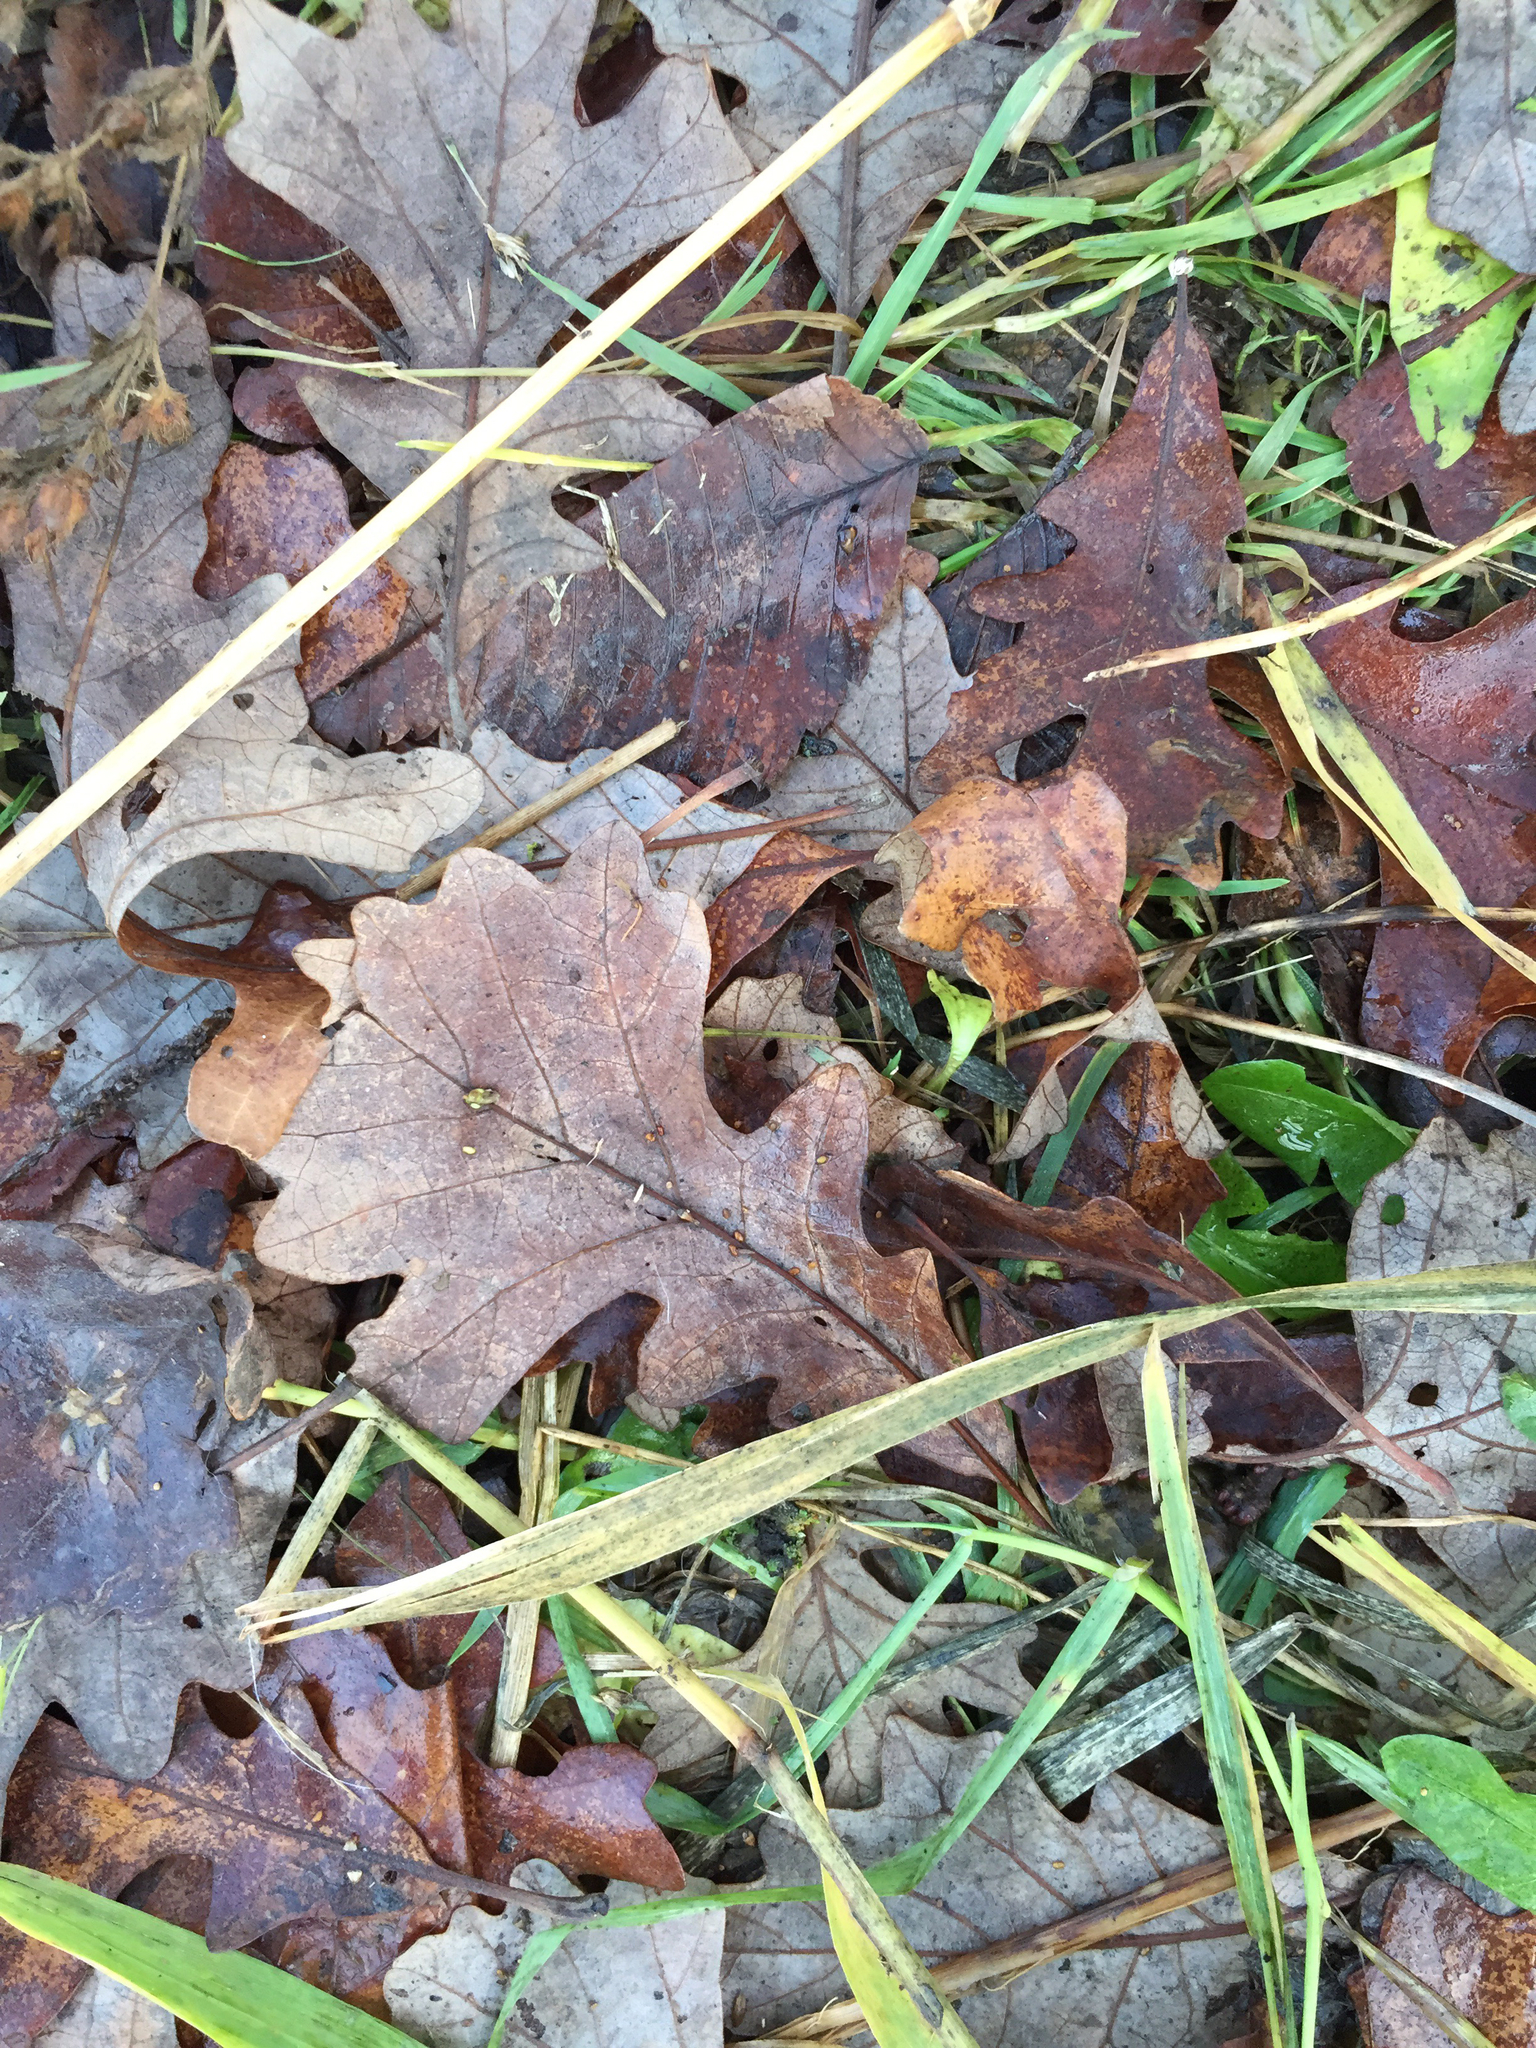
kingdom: Plantae
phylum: Tracheophyta
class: Magnoliopsida
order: Fagales
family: Fagaceae
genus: Quercus
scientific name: Quercus macrocarpa
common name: Bur oak
